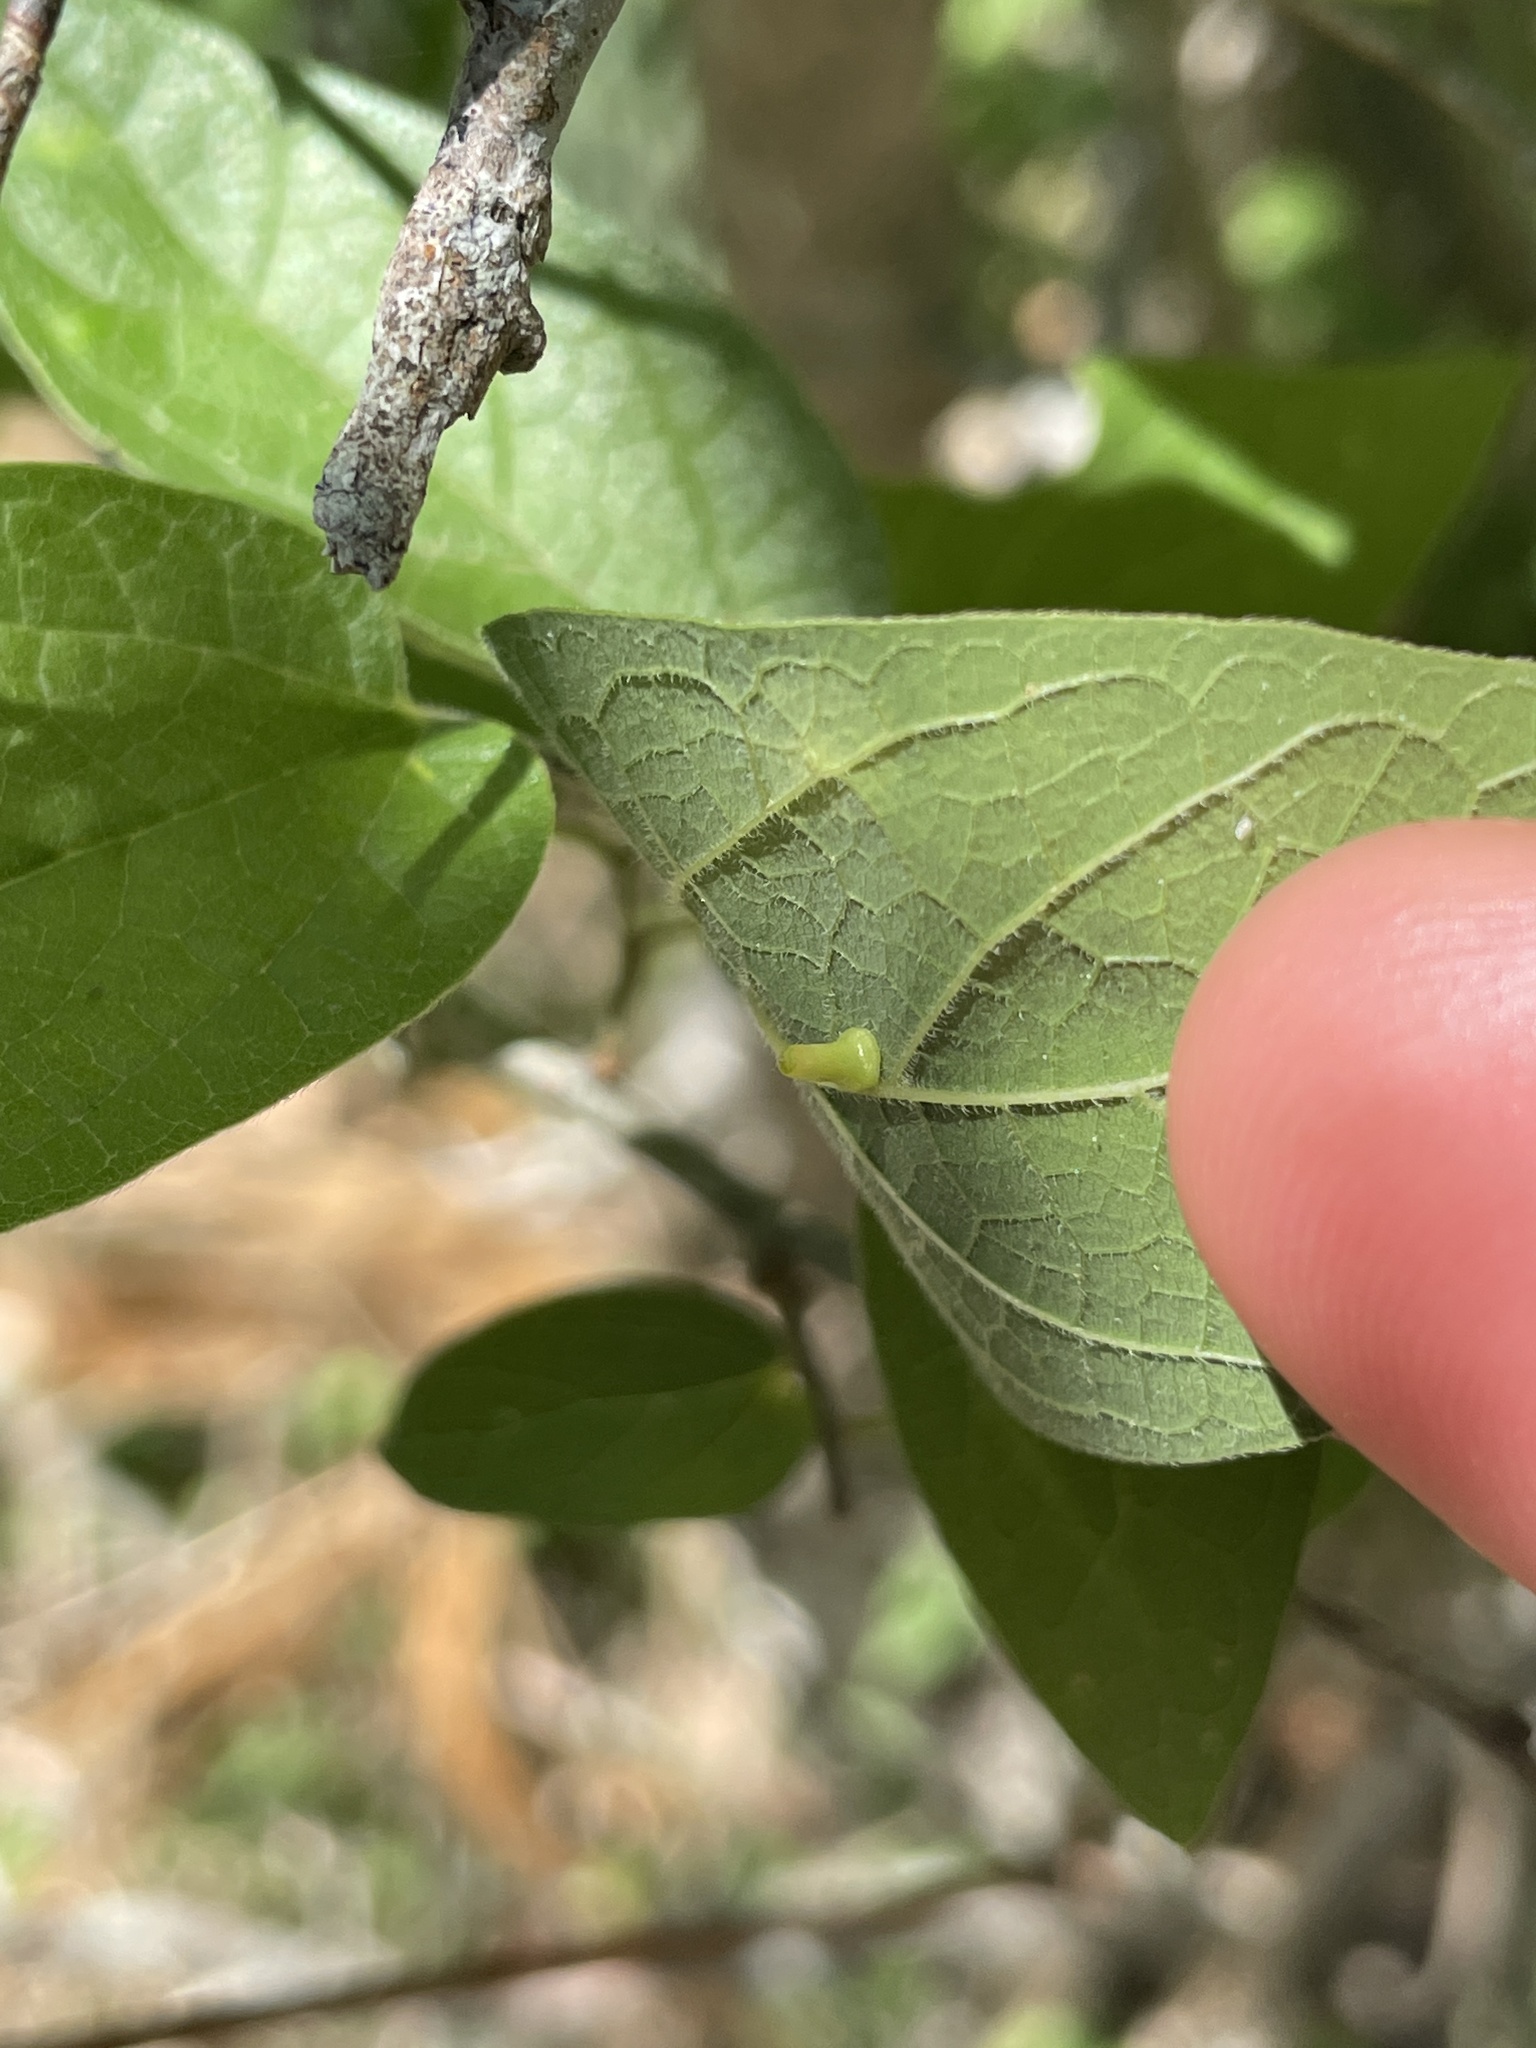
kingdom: Animalia
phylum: Arthropoda
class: Insecta
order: Diptera
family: Cecidomyiidae
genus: Celticecis
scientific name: Celticecis aciculata
